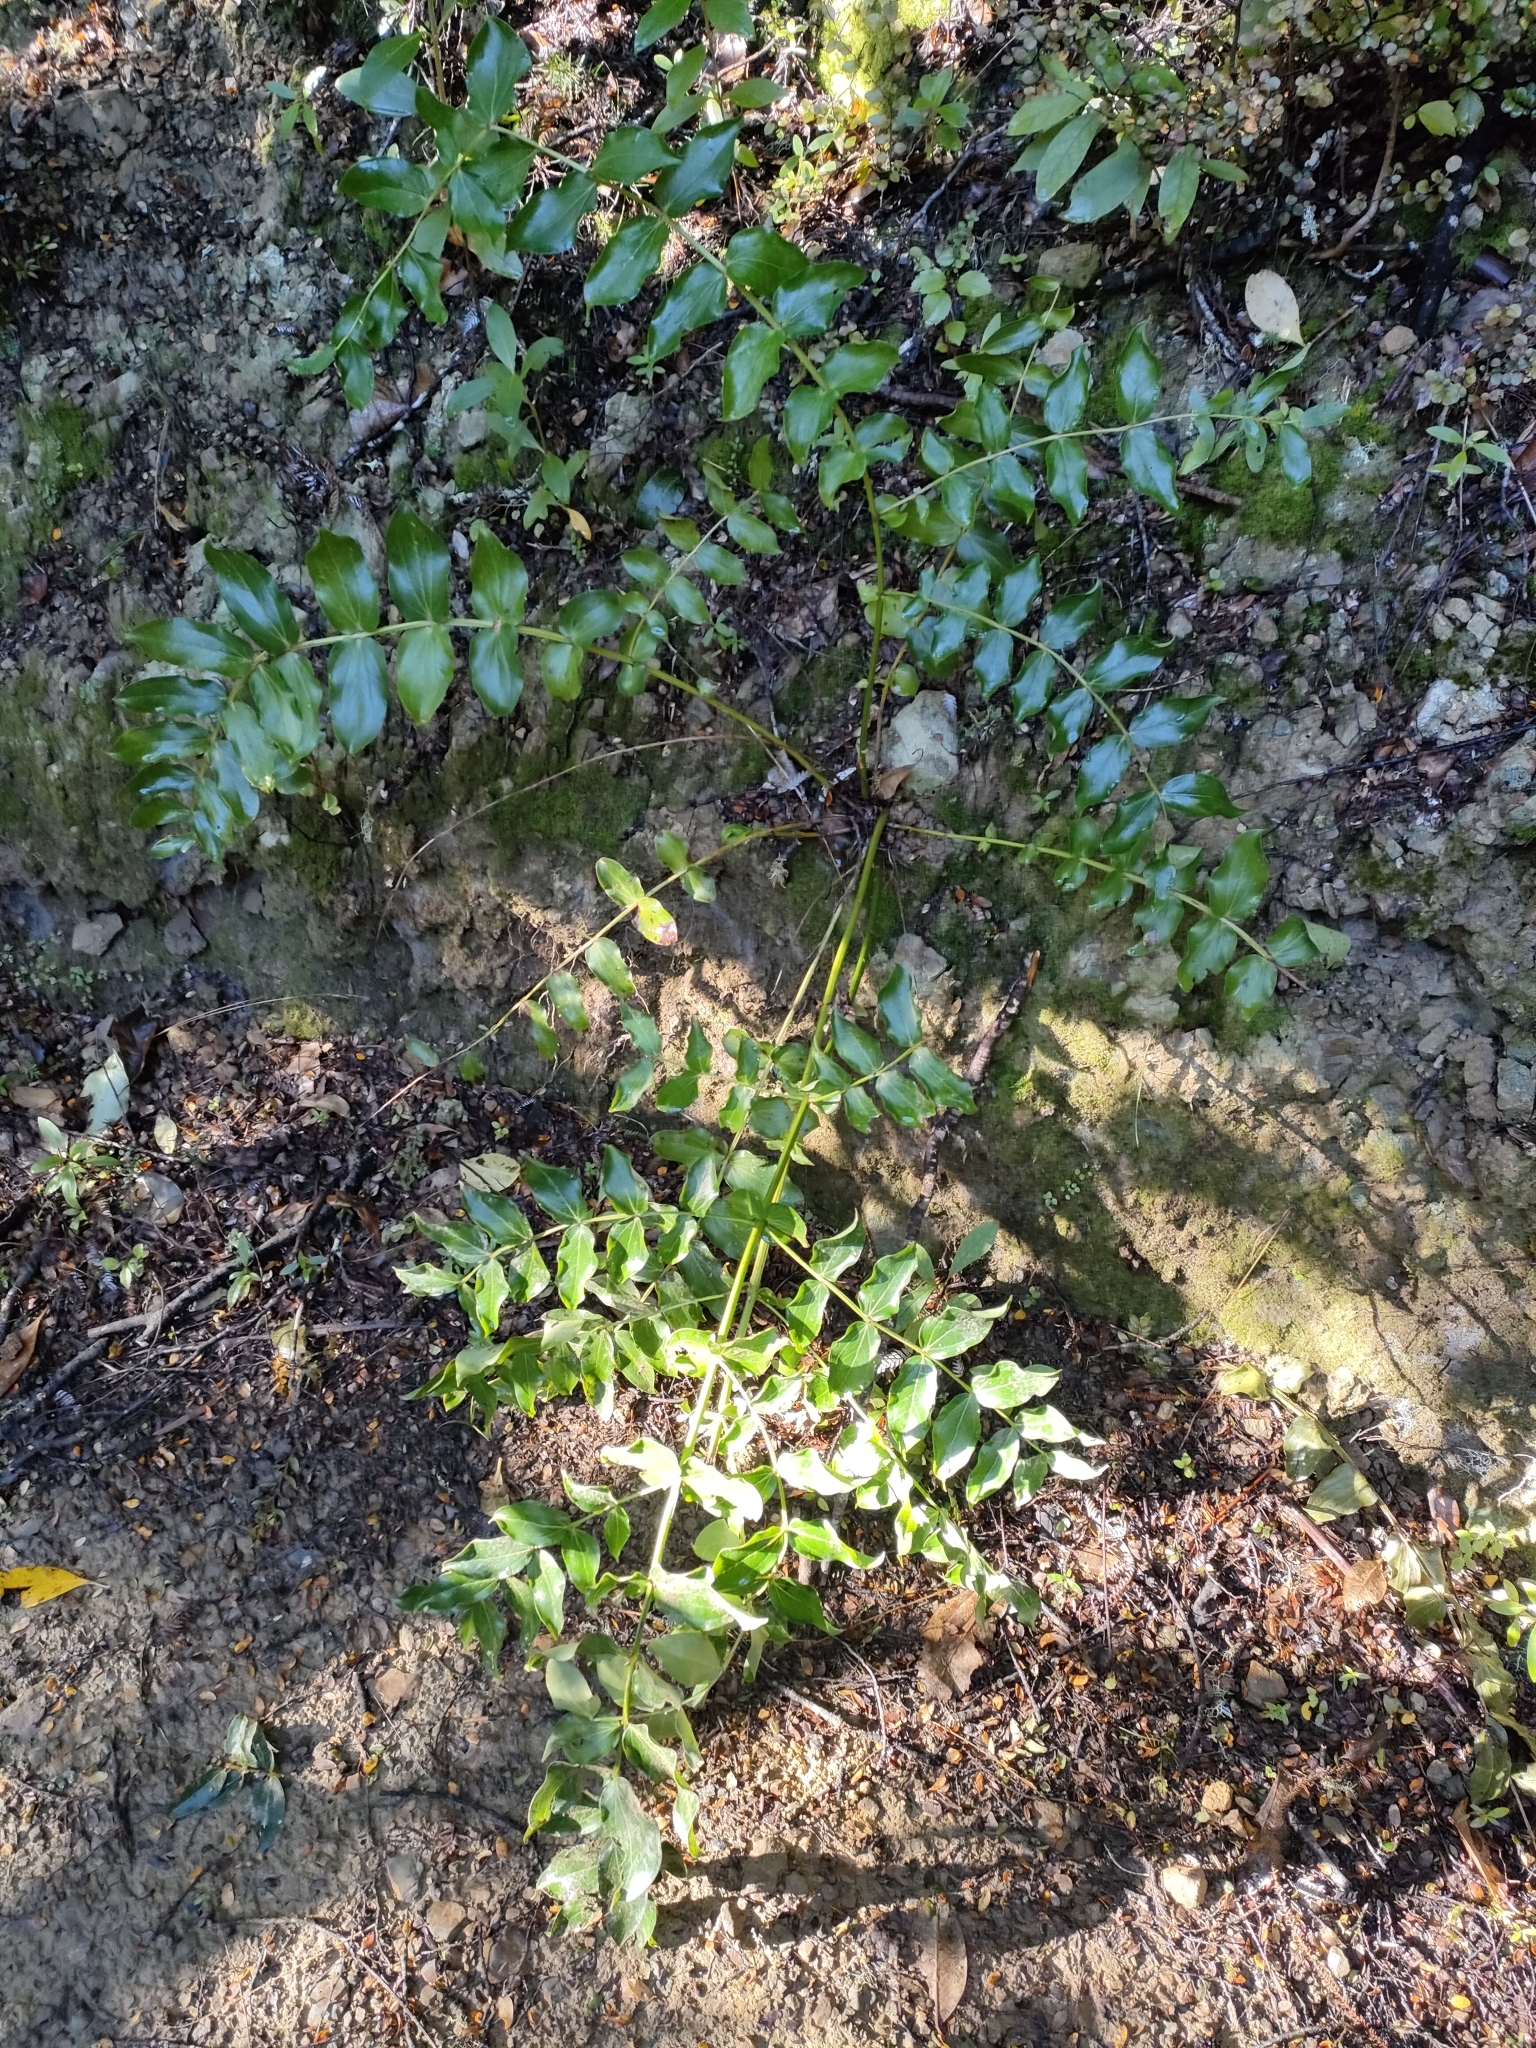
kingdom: Plantae
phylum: Tracheophyta
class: Magnoliopsida
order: Cucurbitales
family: Coriariaceae
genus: Coriaria
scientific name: Coriaria arborea
